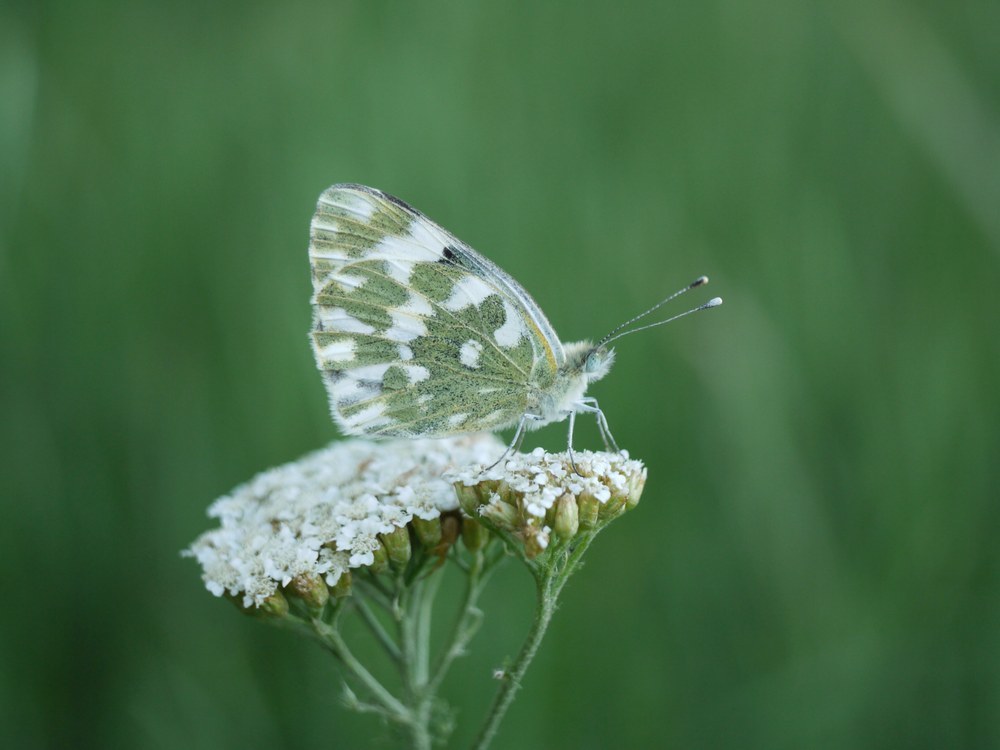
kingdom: Animalia
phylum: Arthropoda
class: Insecta
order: Lepidoptera
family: Pieridae
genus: Pontia
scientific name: Pontia edusa
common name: Eastern bath white
